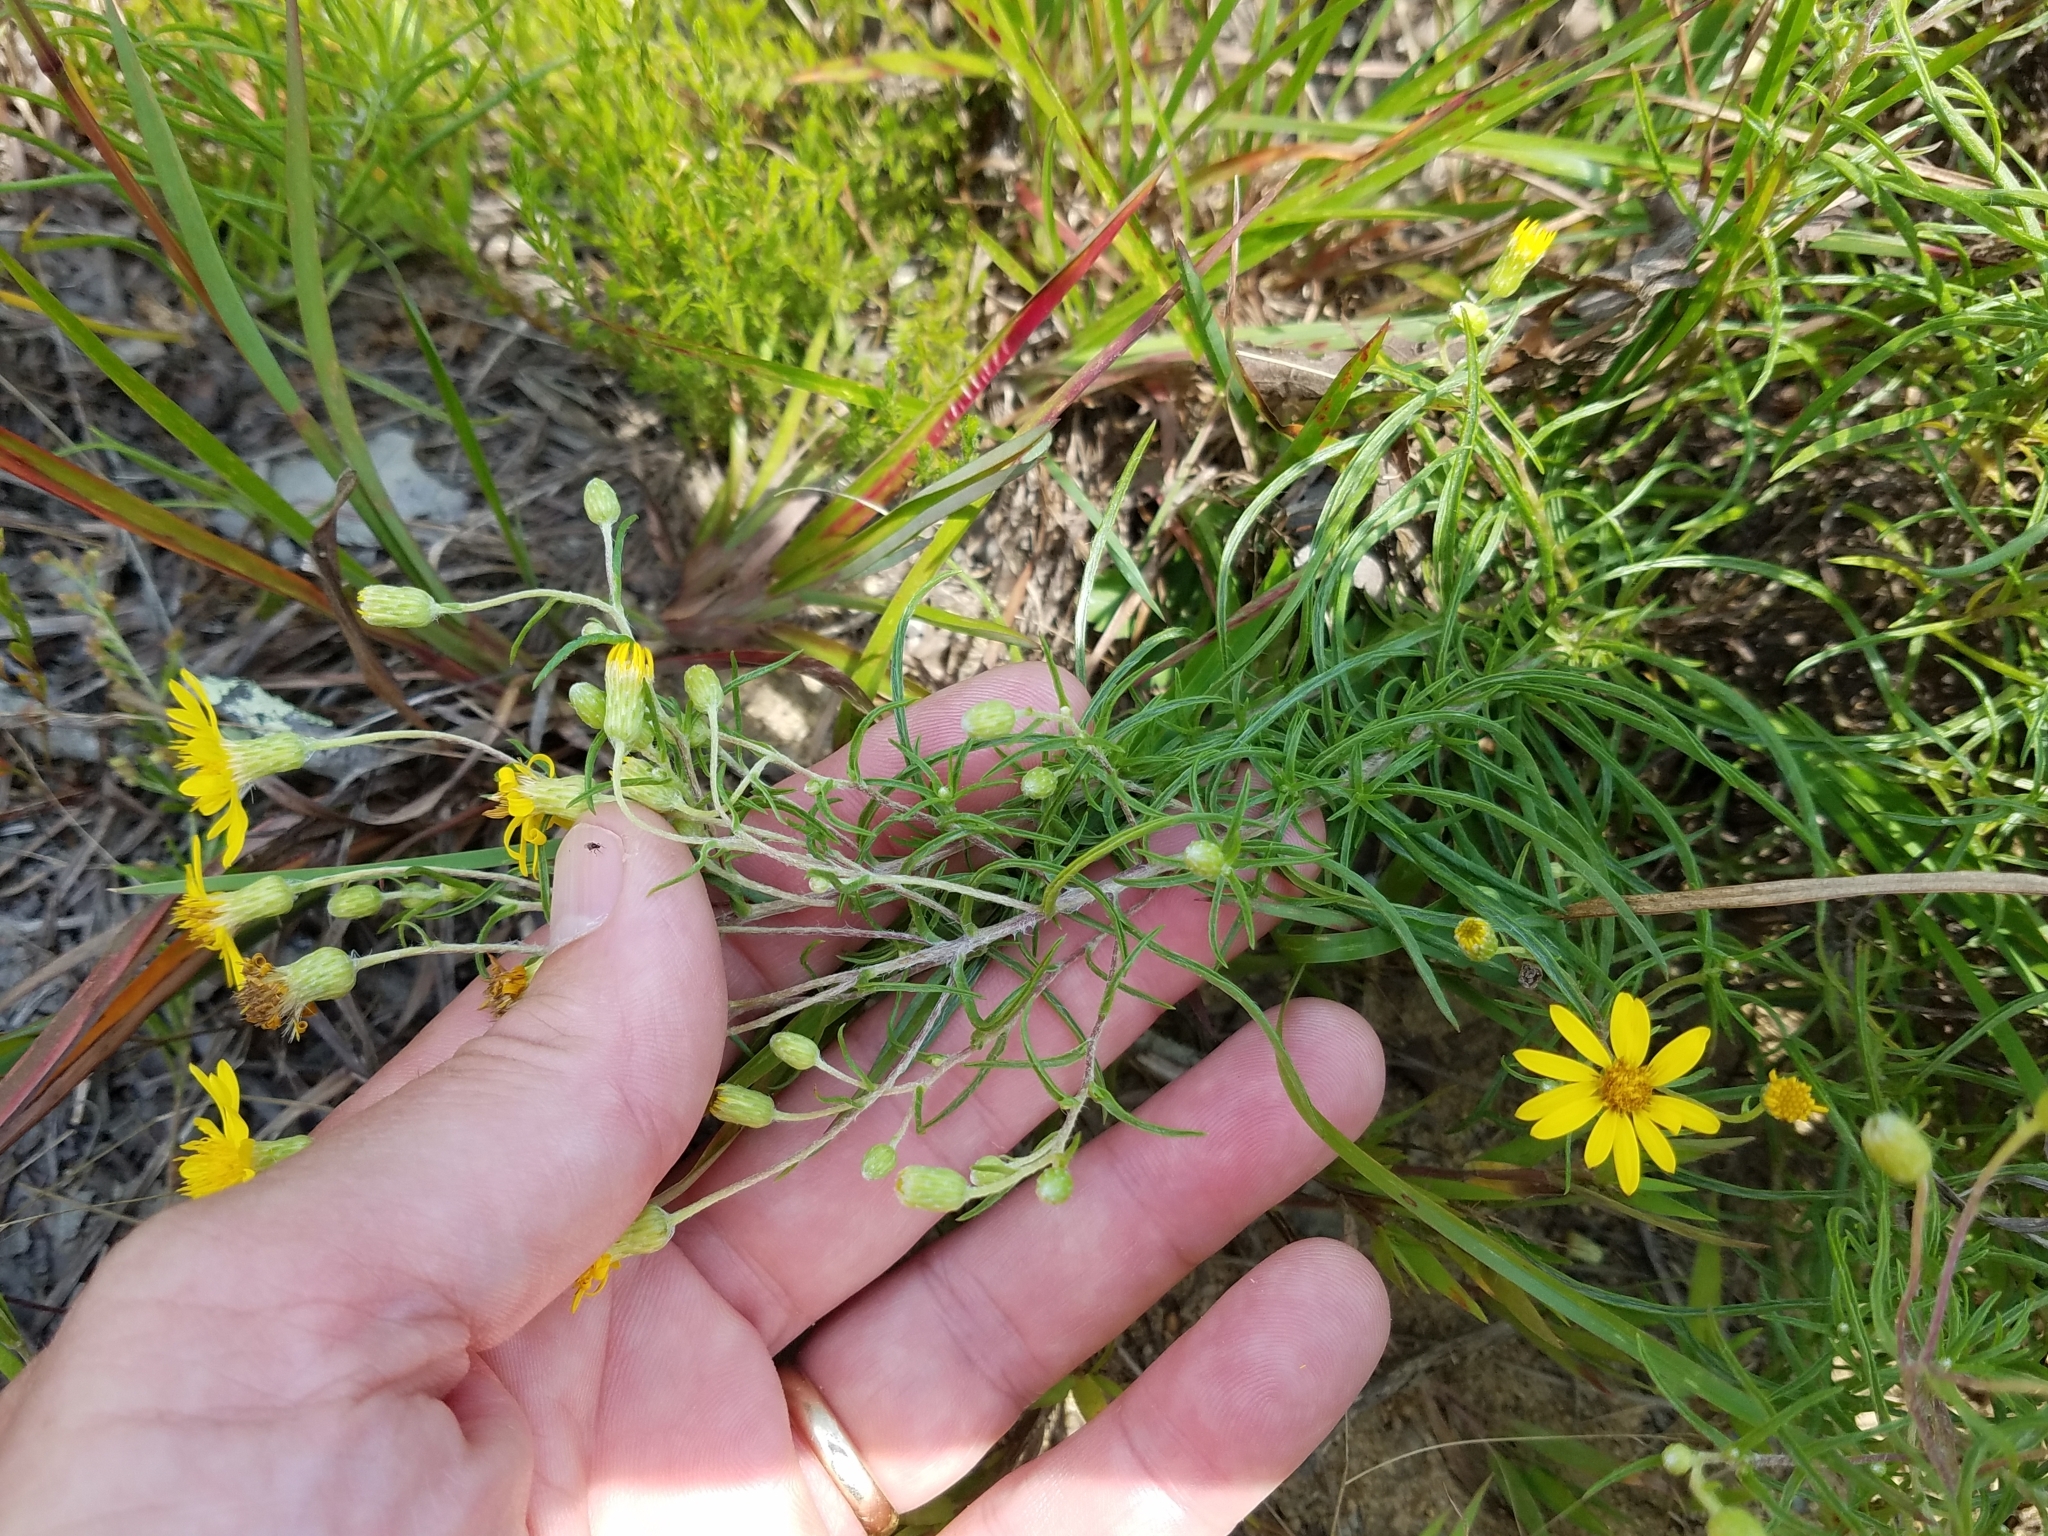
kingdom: Plantae
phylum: Tracheophyta
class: Magnoliopsida
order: Asterales
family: Asteraceae
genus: Pityopsis
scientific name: Pityopsis falcata
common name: Sickle-leaved goldenaster
